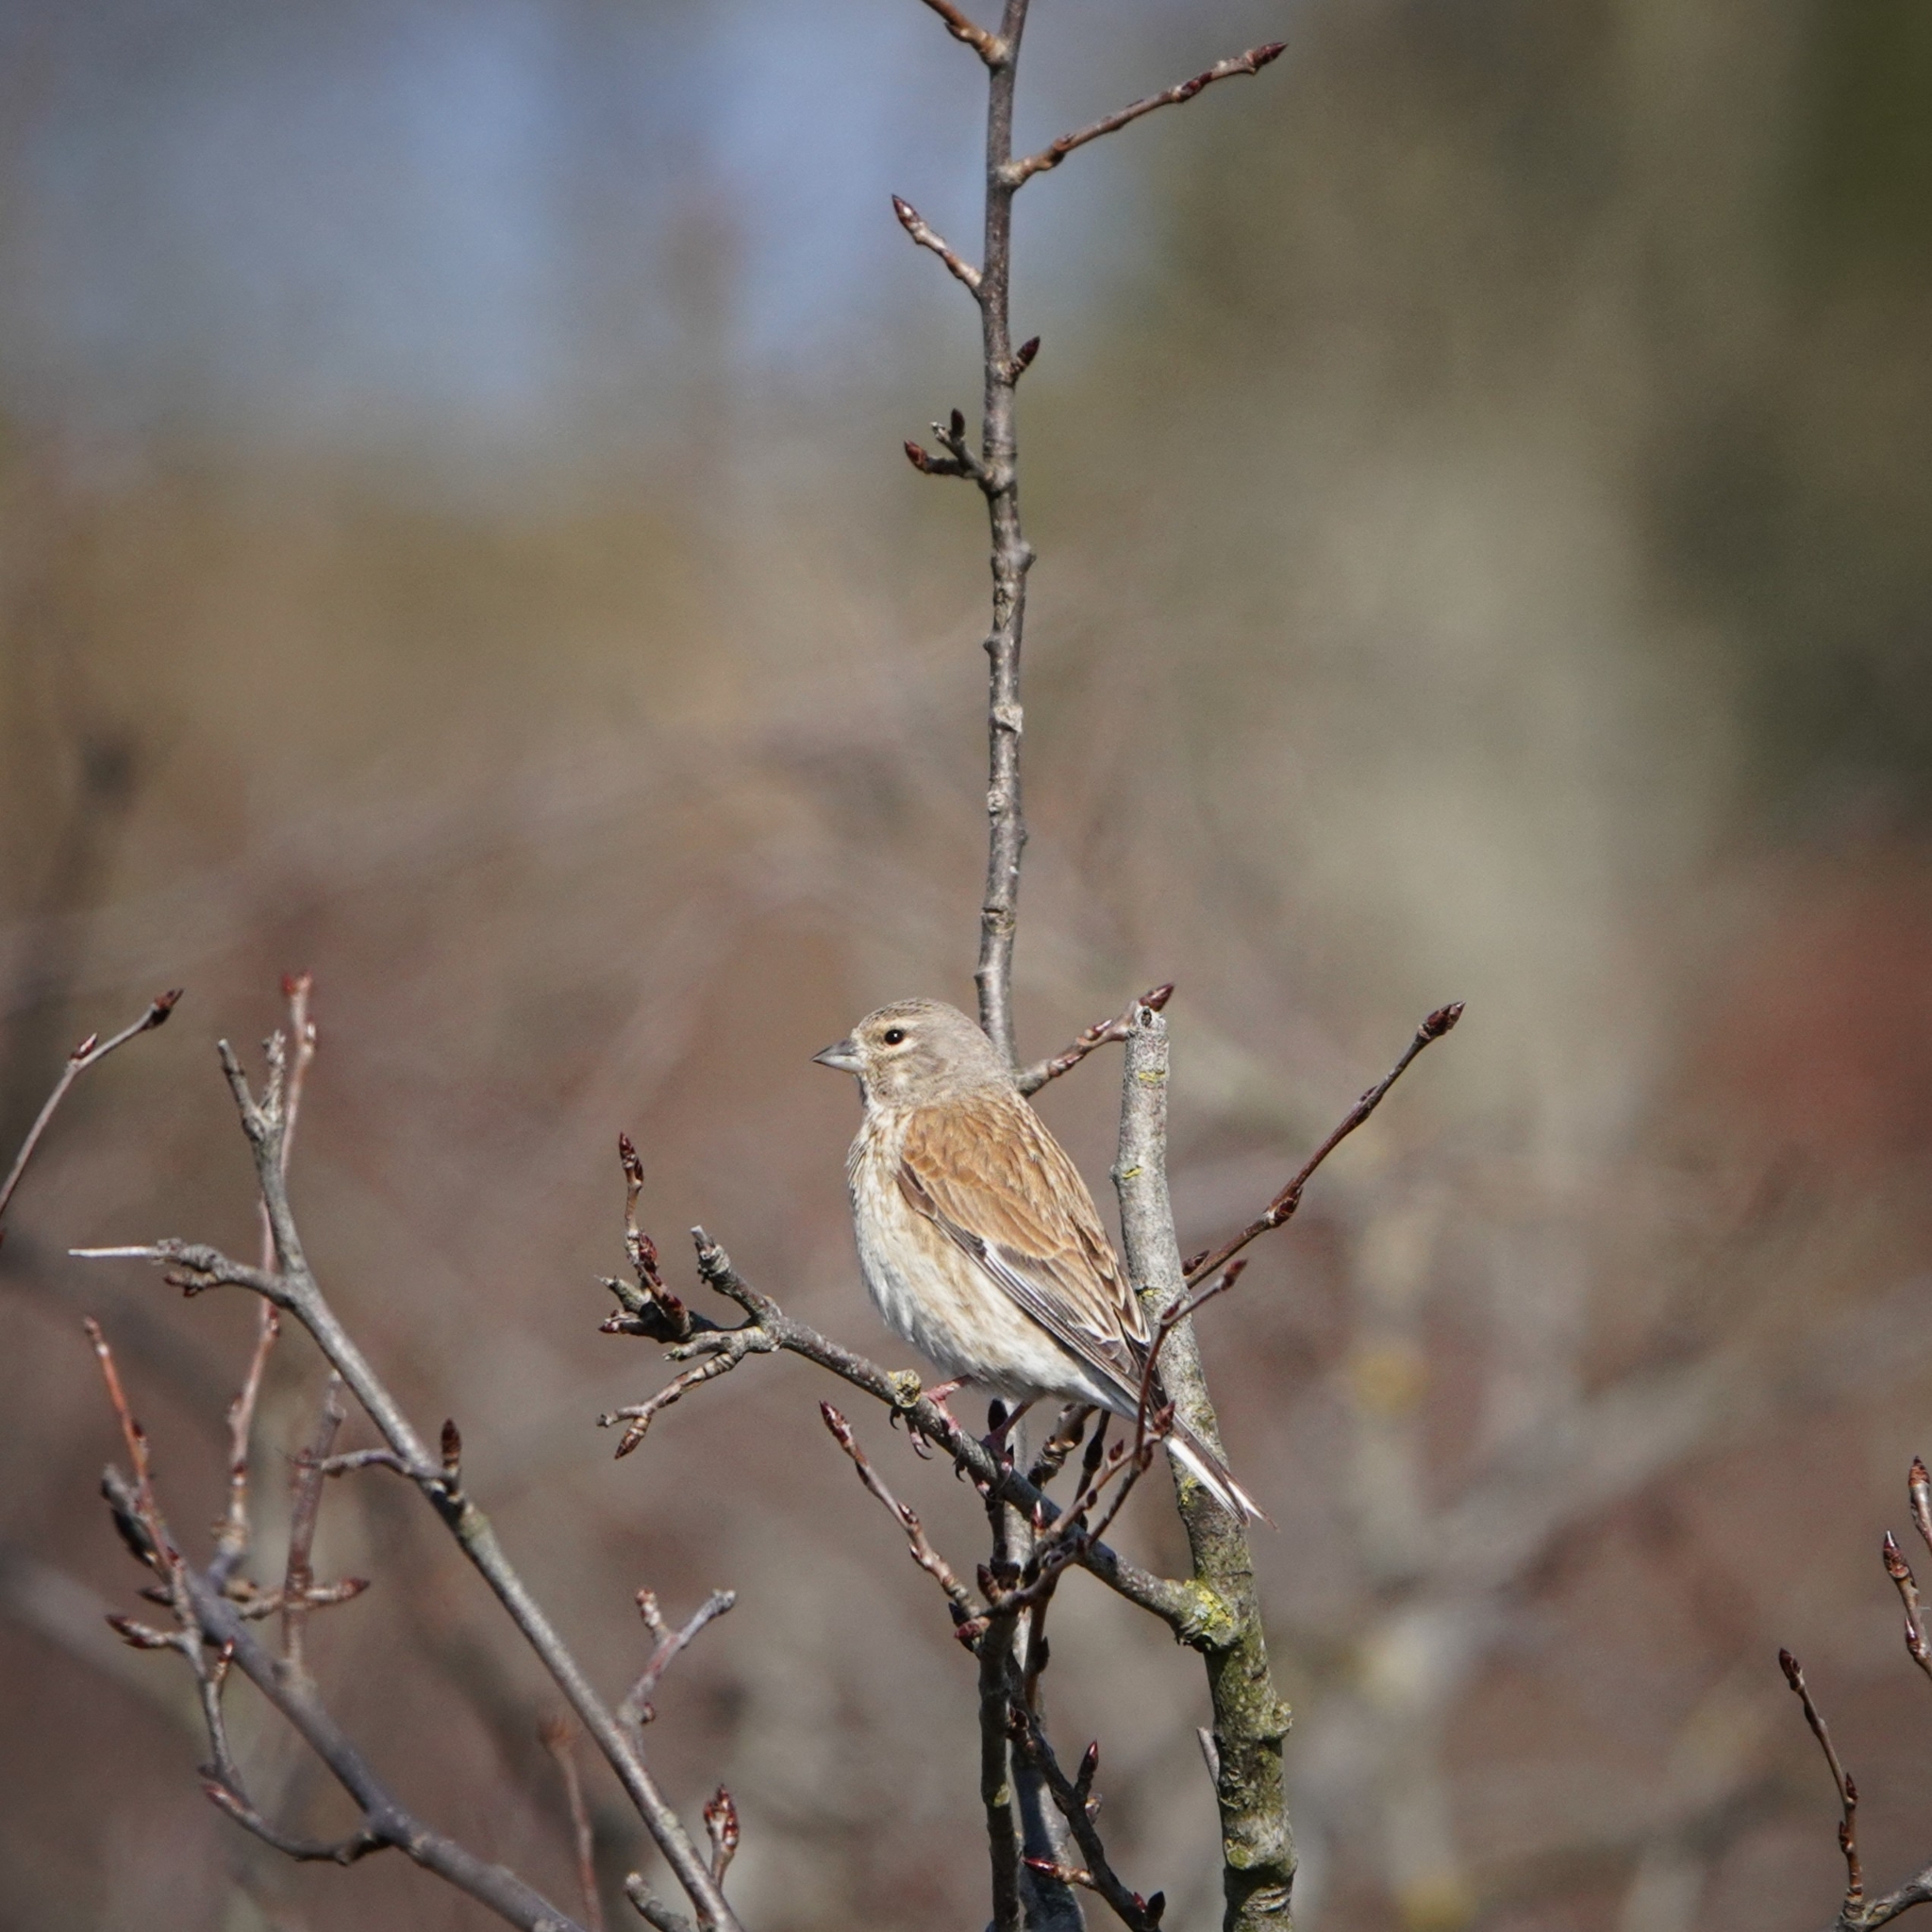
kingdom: Animalia
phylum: Chordata
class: Aves
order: Passeriformes
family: Fringillidae
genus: Linaria
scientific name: Linaria cannabina
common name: Common linnet
